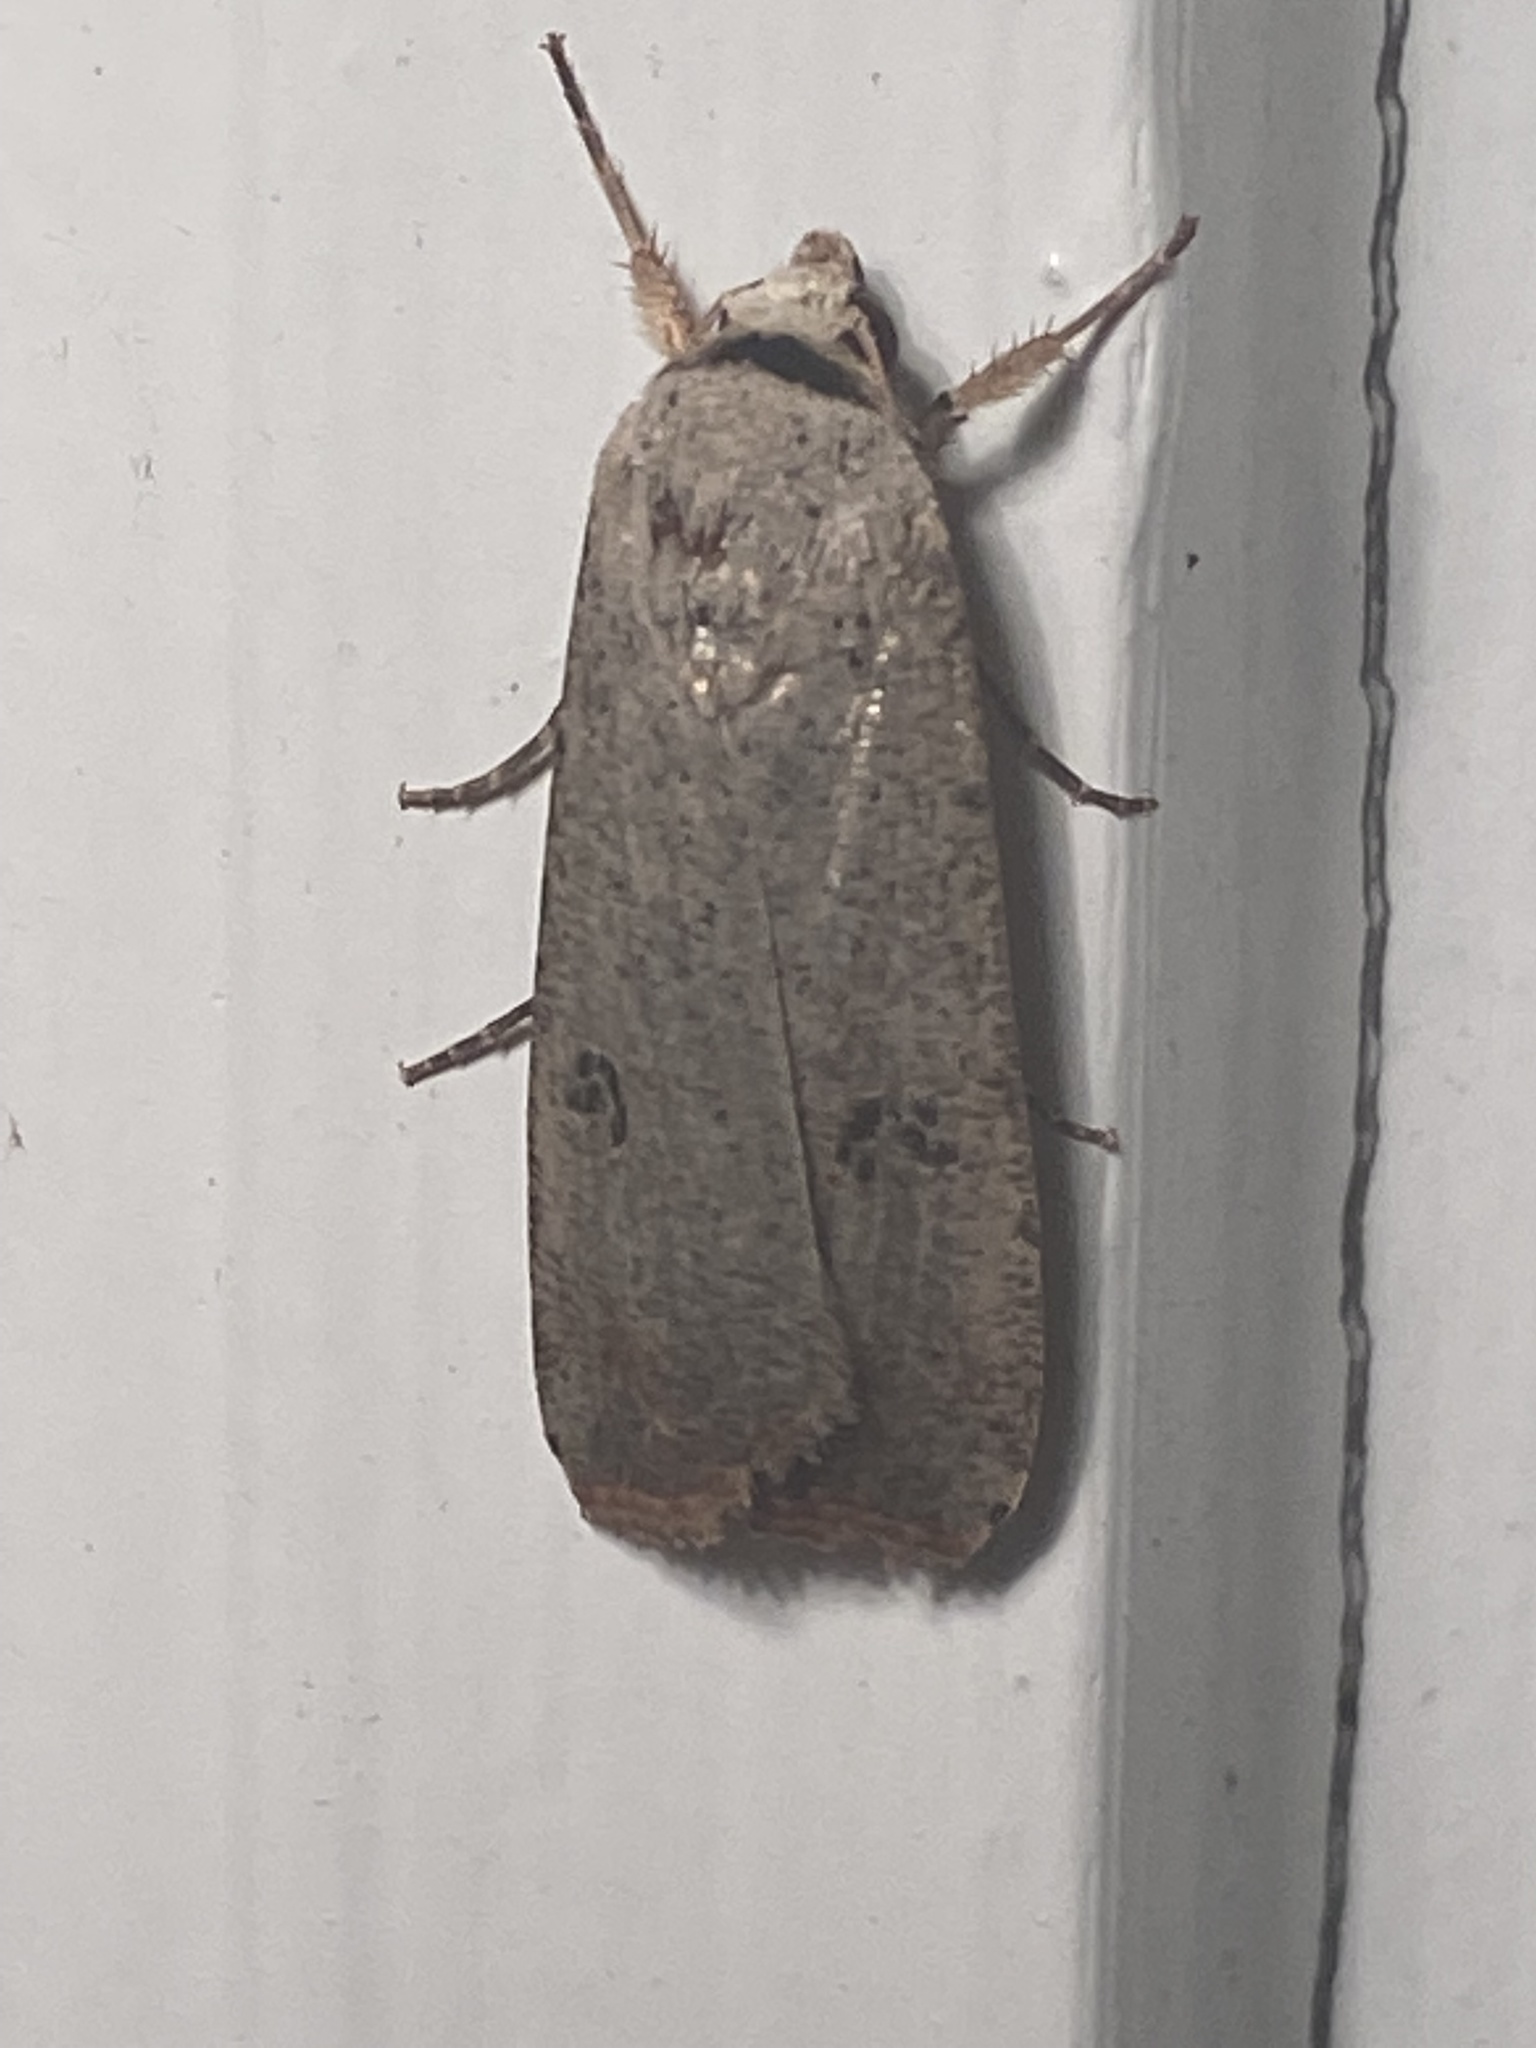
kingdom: Animalia
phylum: Arthropoda
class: Insecta
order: Lepidoptera
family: Noctuidae
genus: Anicla
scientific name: Anicla infecta
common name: Green cutworm
